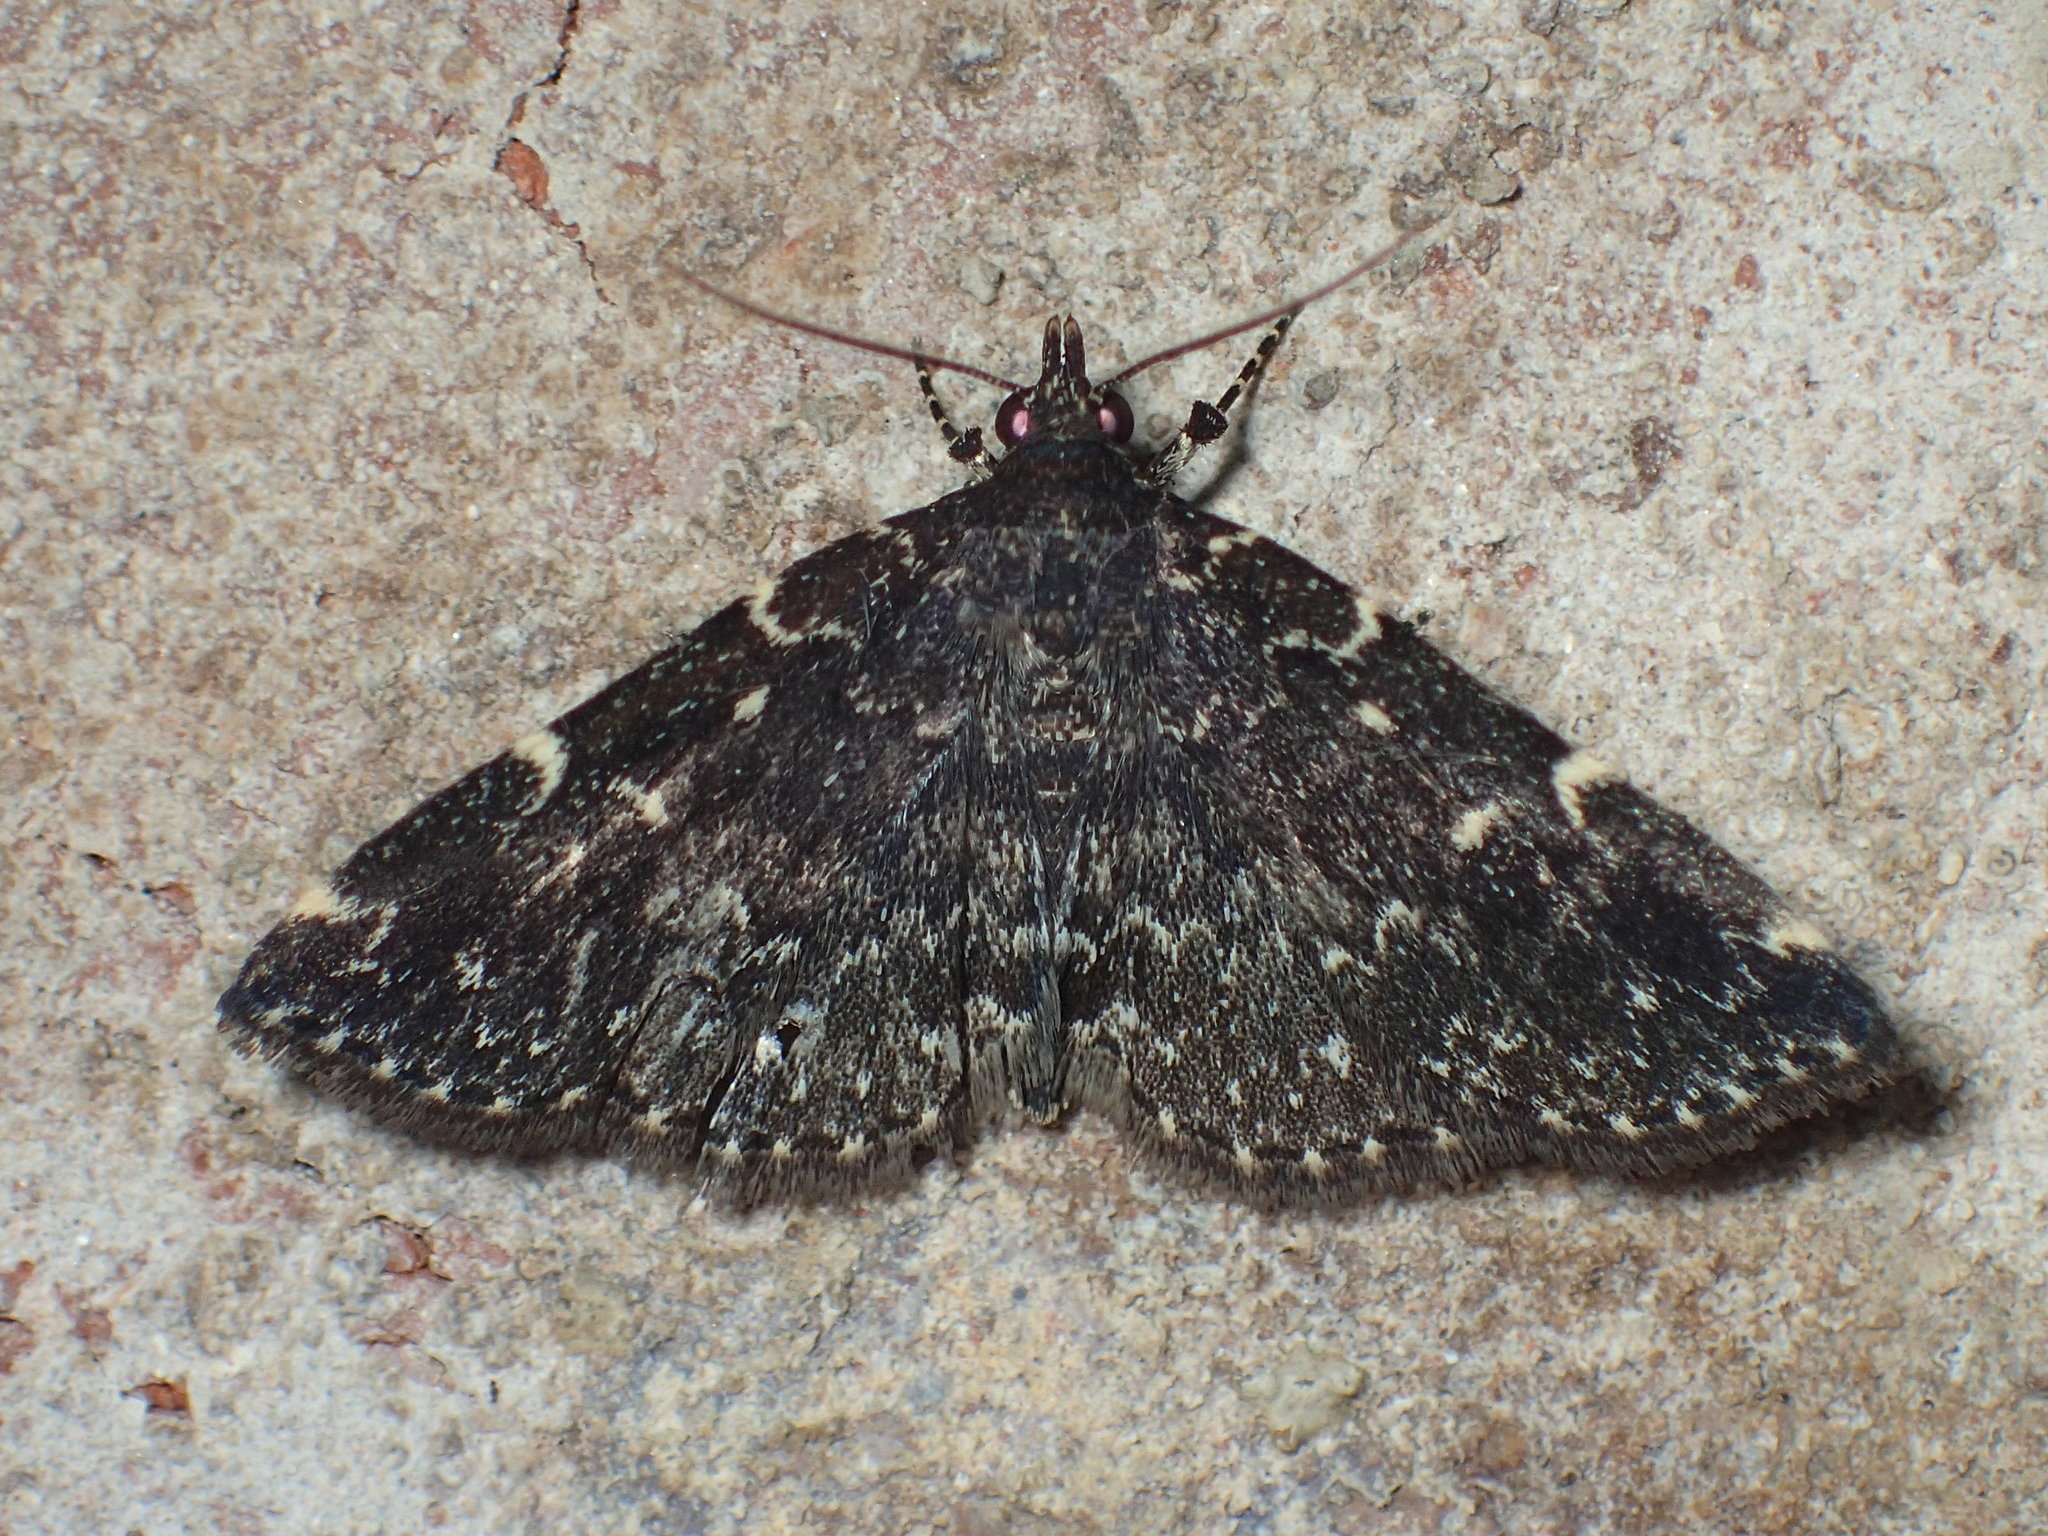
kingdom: Animalia
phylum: Arthropoda
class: Insecta
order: Lepidoptera
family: Erebidae
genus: Idia
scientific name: Idia scobialis
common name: Smoky idia moth
